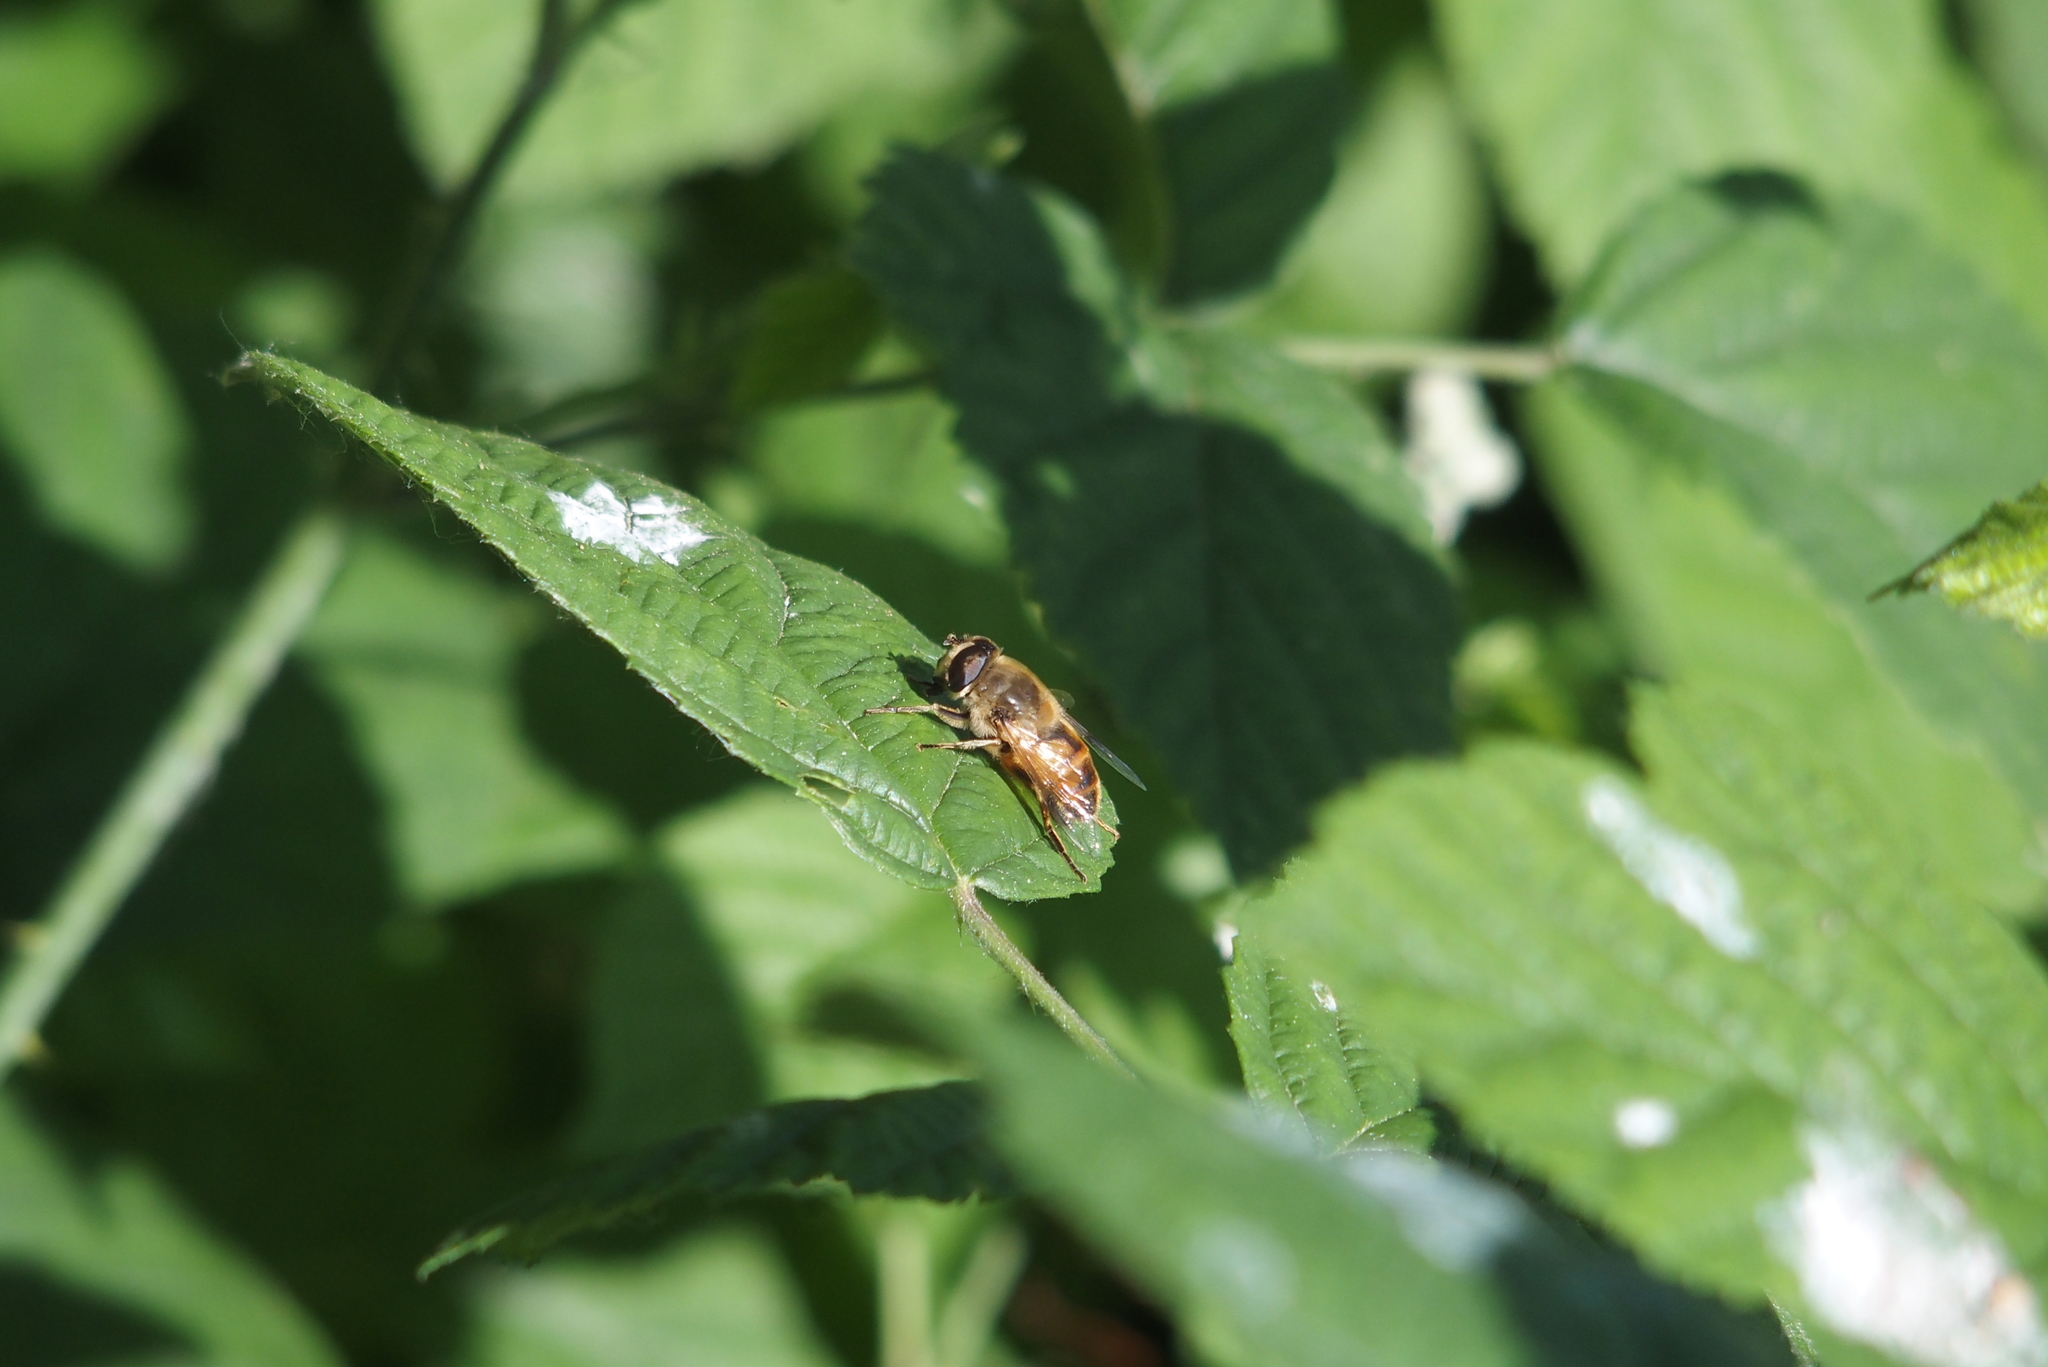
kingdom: Animalia
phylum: Arthropoda
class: Insecta
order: Diptera
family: Syrphidae
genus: Eristalis
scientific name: Eristalis tenax
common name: Drone fly
